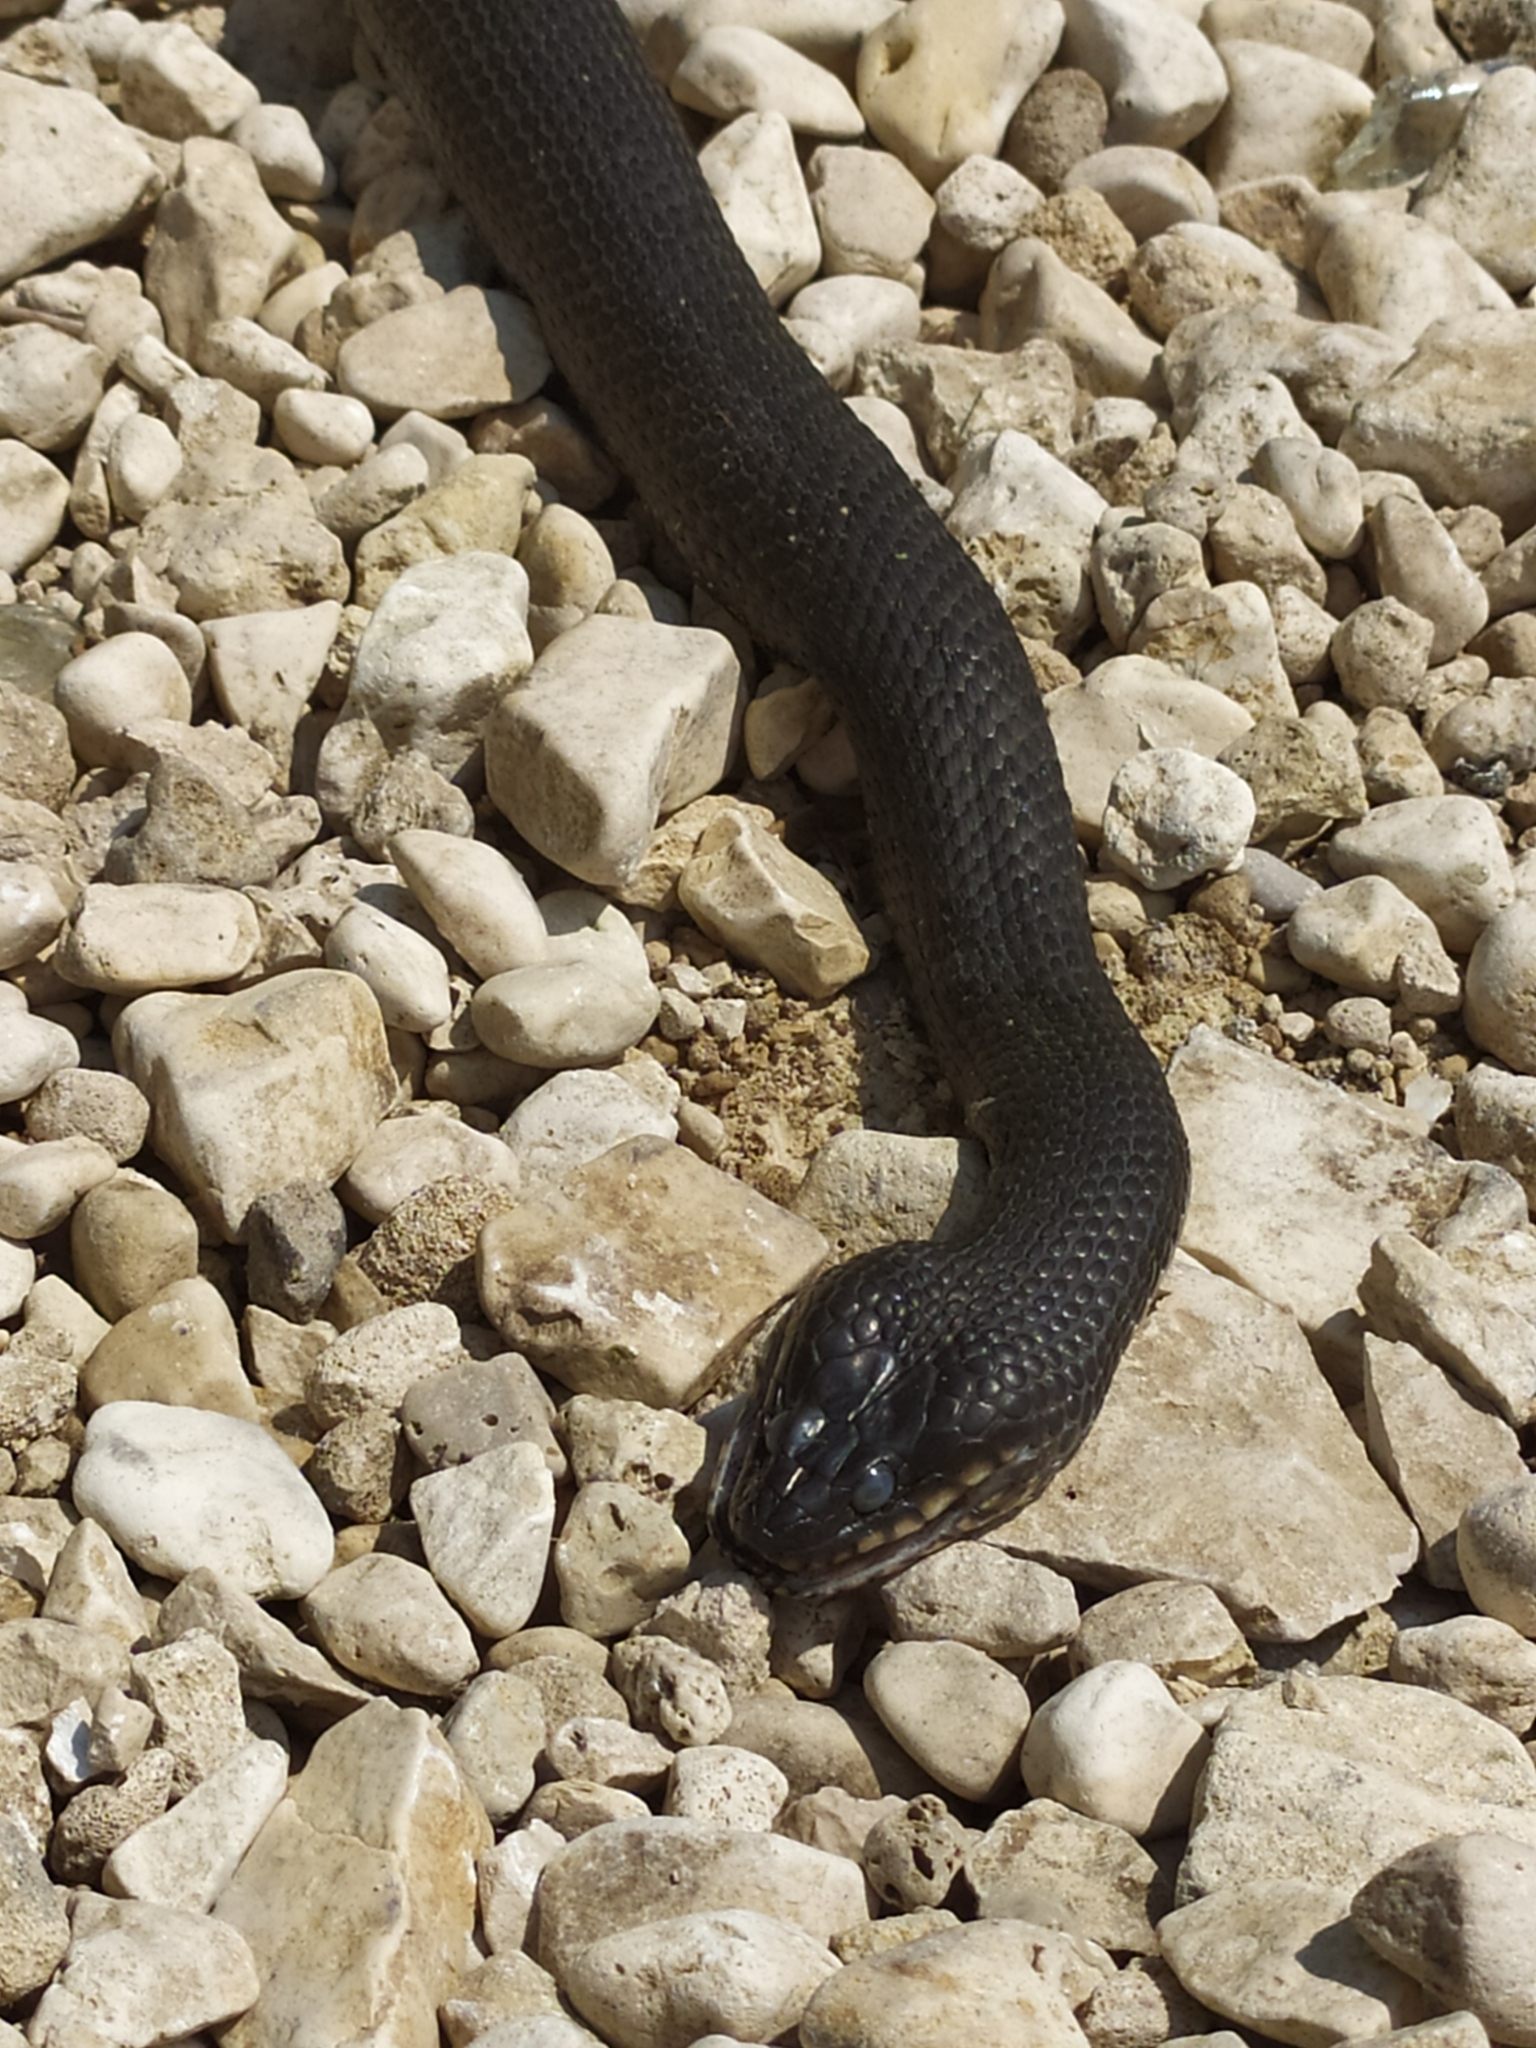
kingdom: Animalia
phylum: Chordata
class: Squamata
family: Colubridae
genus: Natrix
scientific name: Natrix tessellata
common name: Dice snake
